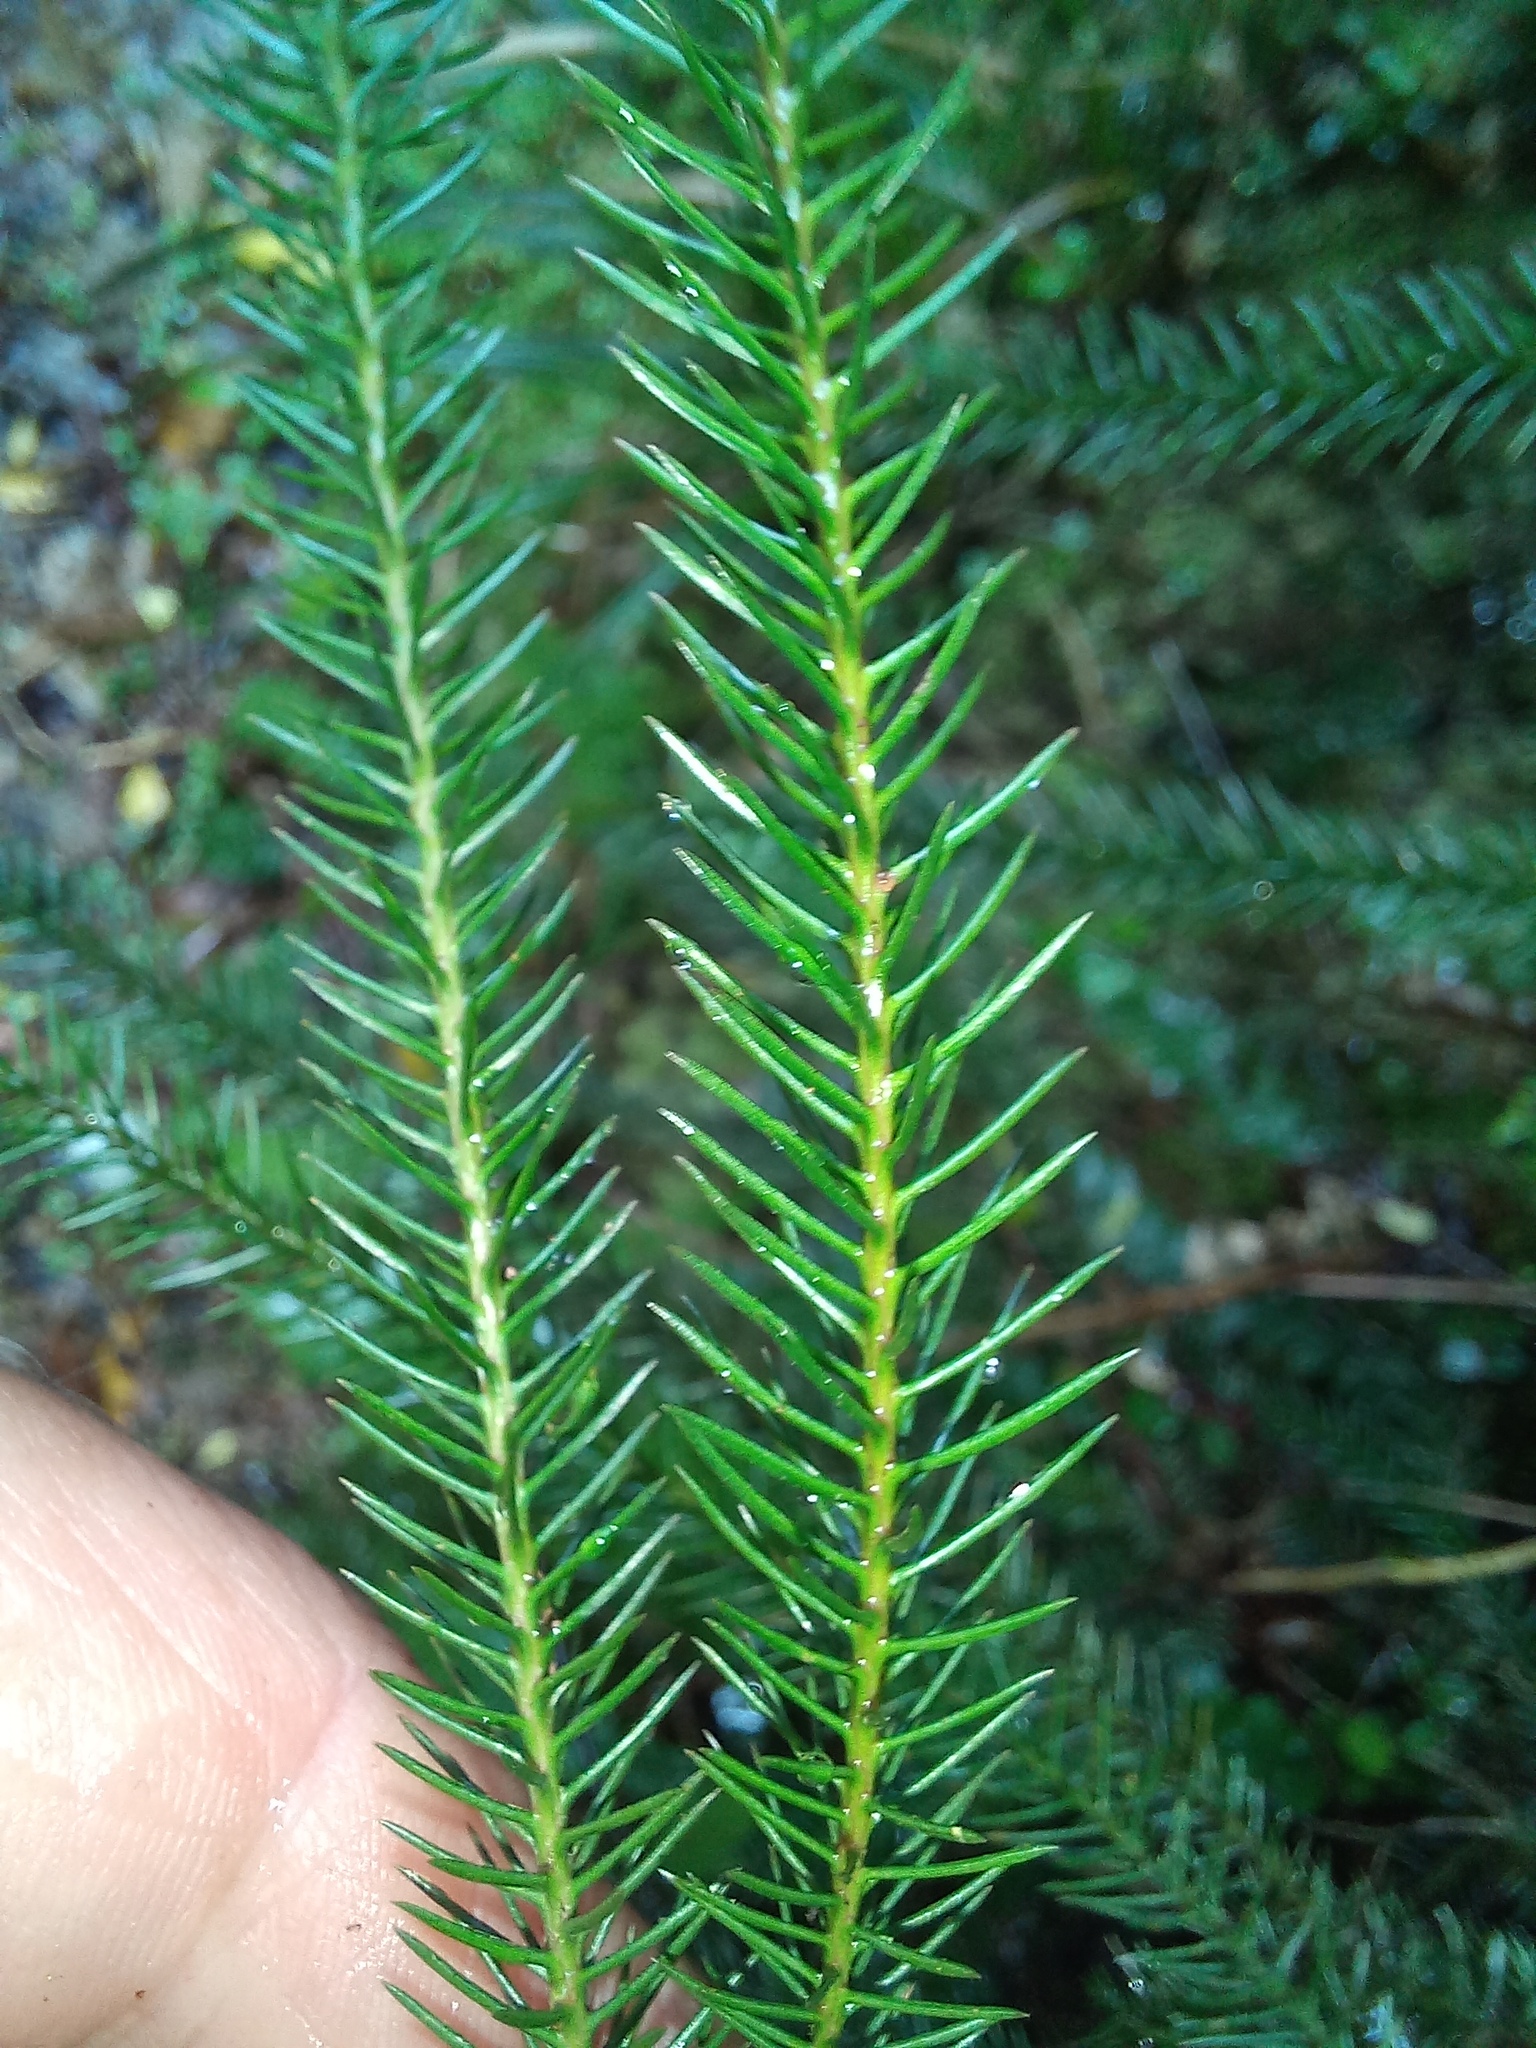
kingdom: Plantae
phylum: Tracheophyta
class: Pinopsida
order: Pinales
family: Podocarpaceae
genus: Dacrydium
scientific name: Dacrydium cupressinum
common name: Red pine
